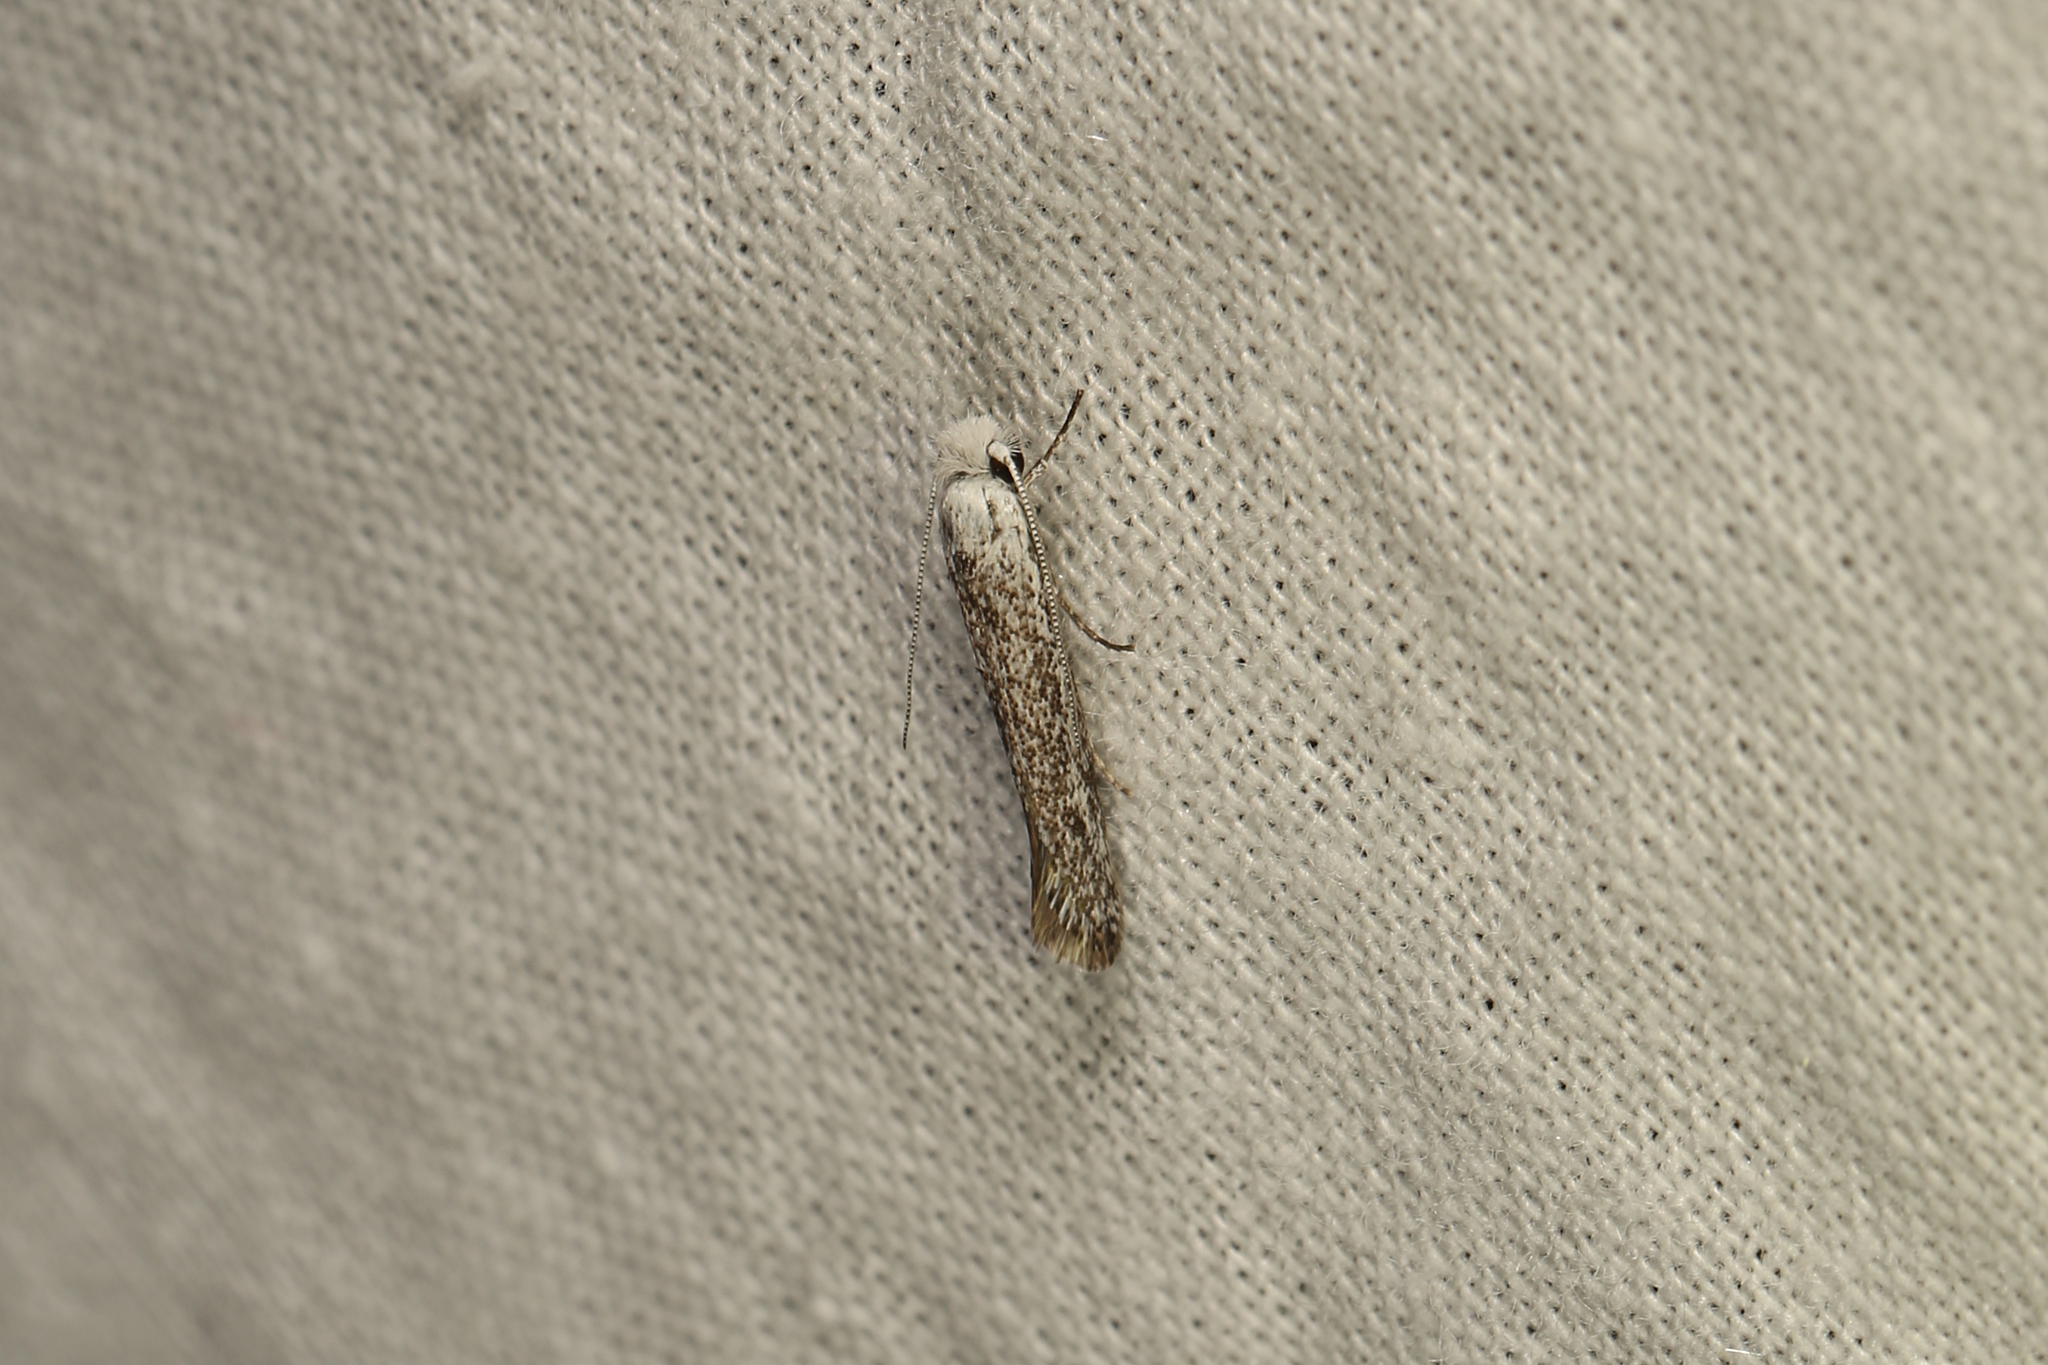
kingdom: Animalia
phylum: Arthropoda
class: Insecta
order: Lepidoptera
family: Tineidae
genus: Metapherna
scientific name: Metapherna salsa
